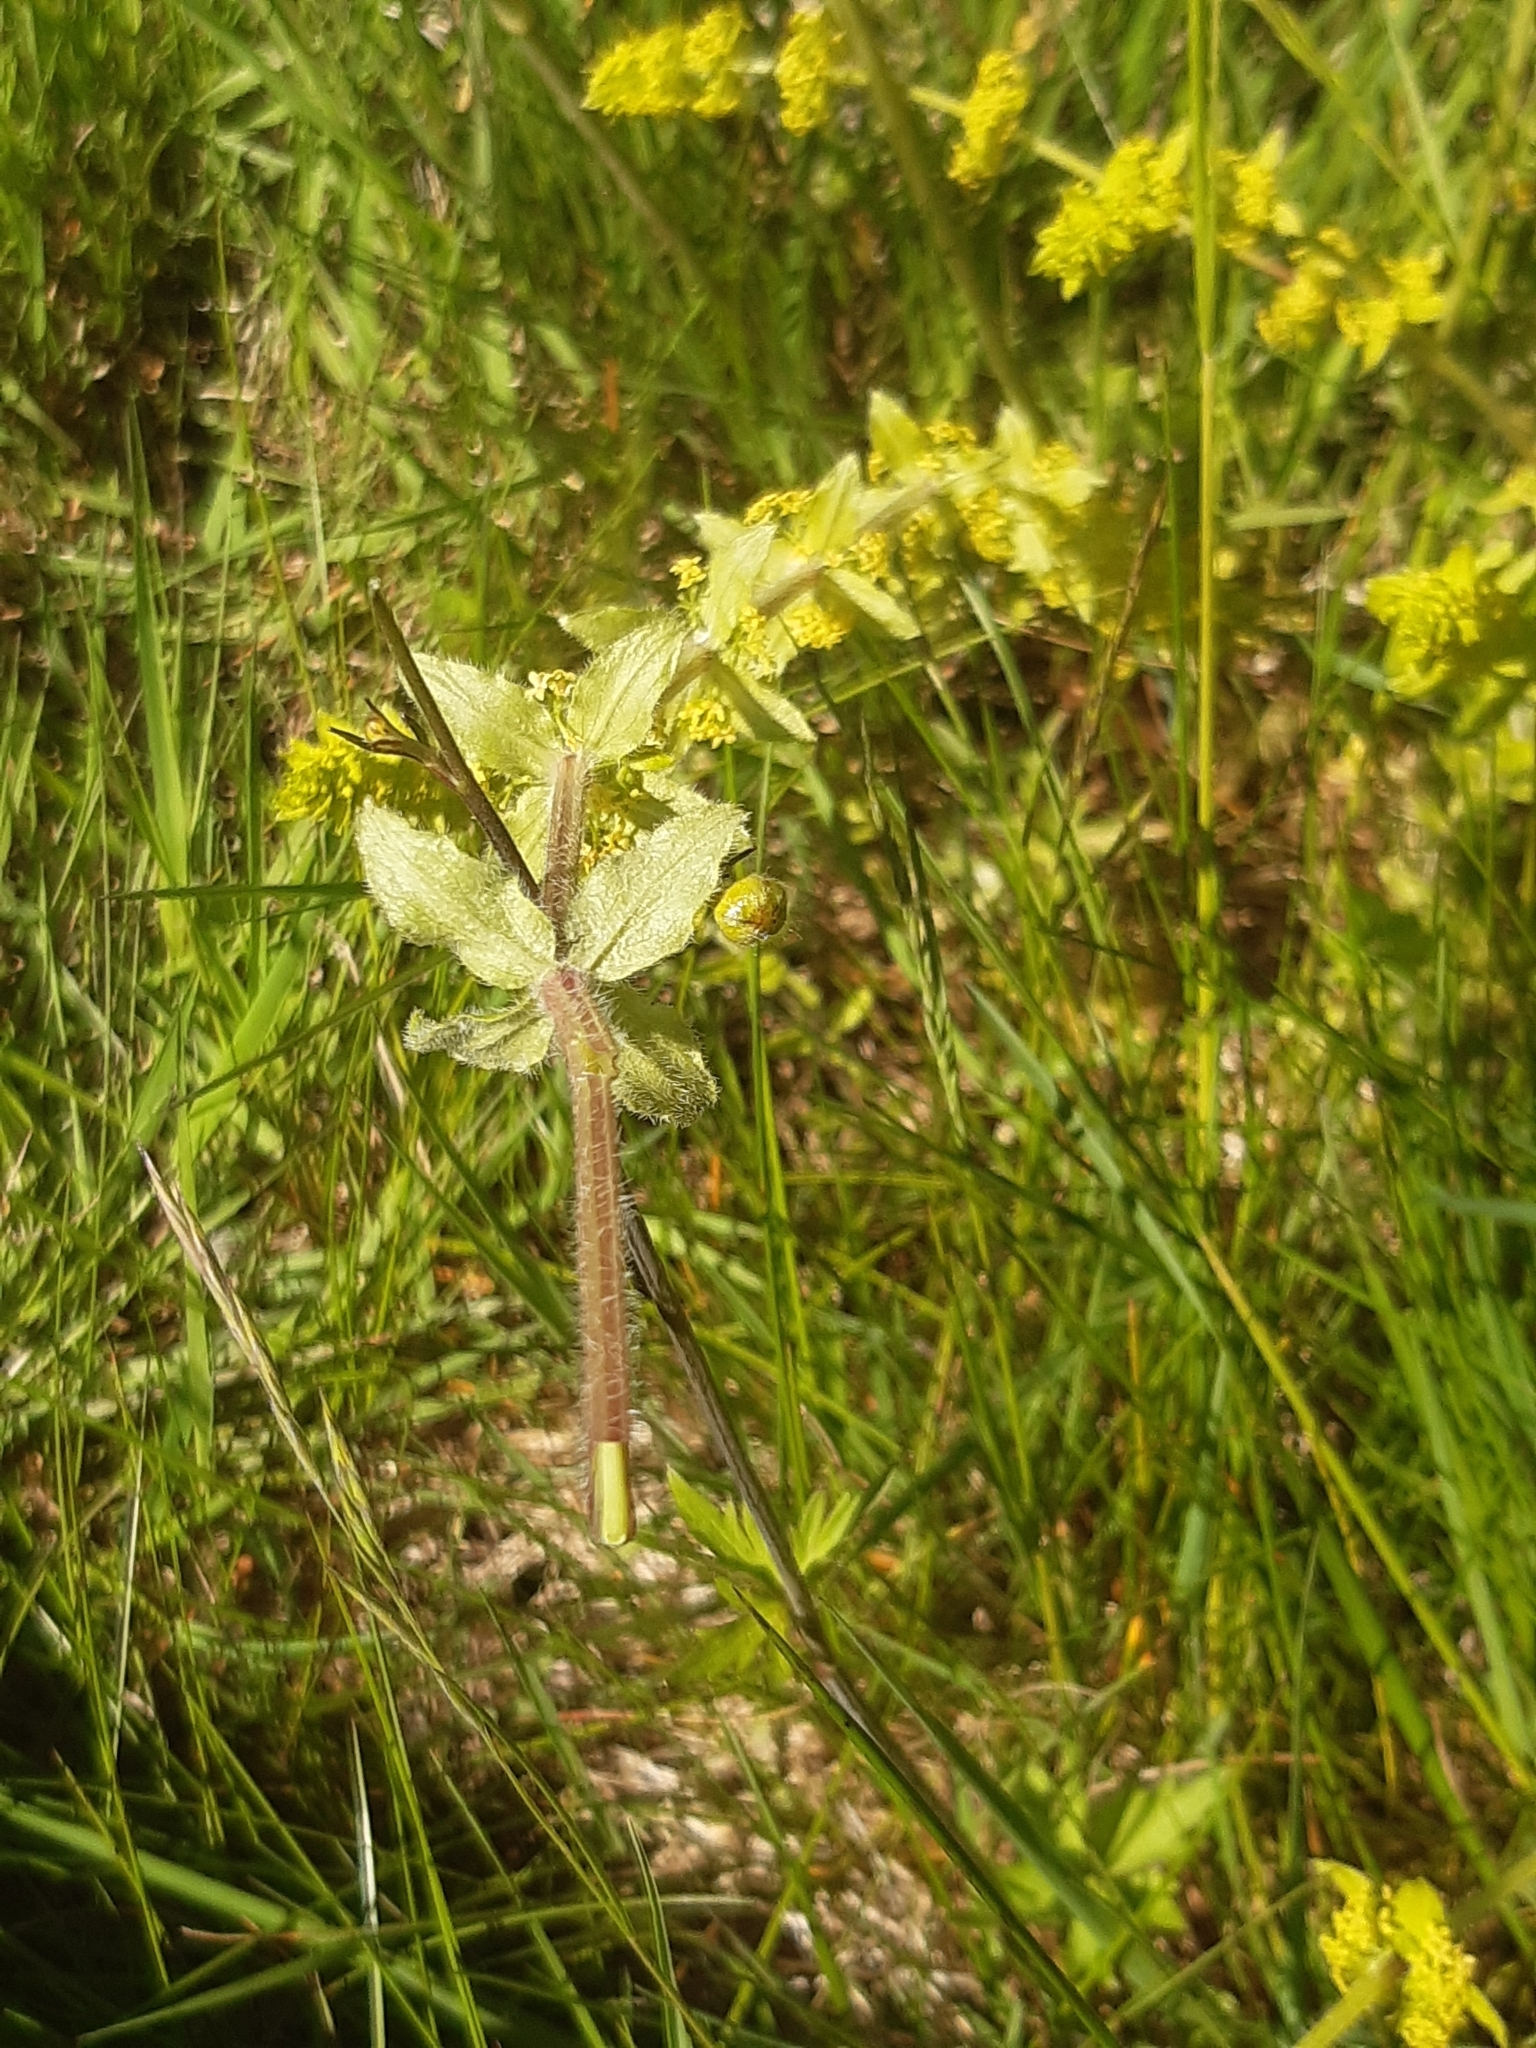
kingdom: Plantae
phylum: Tracheophyta
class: Magnoliopsida
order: Gentianales
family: Rubiaceae
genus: Cruciata
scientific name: Cruciata laevipes
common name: Crosswort
